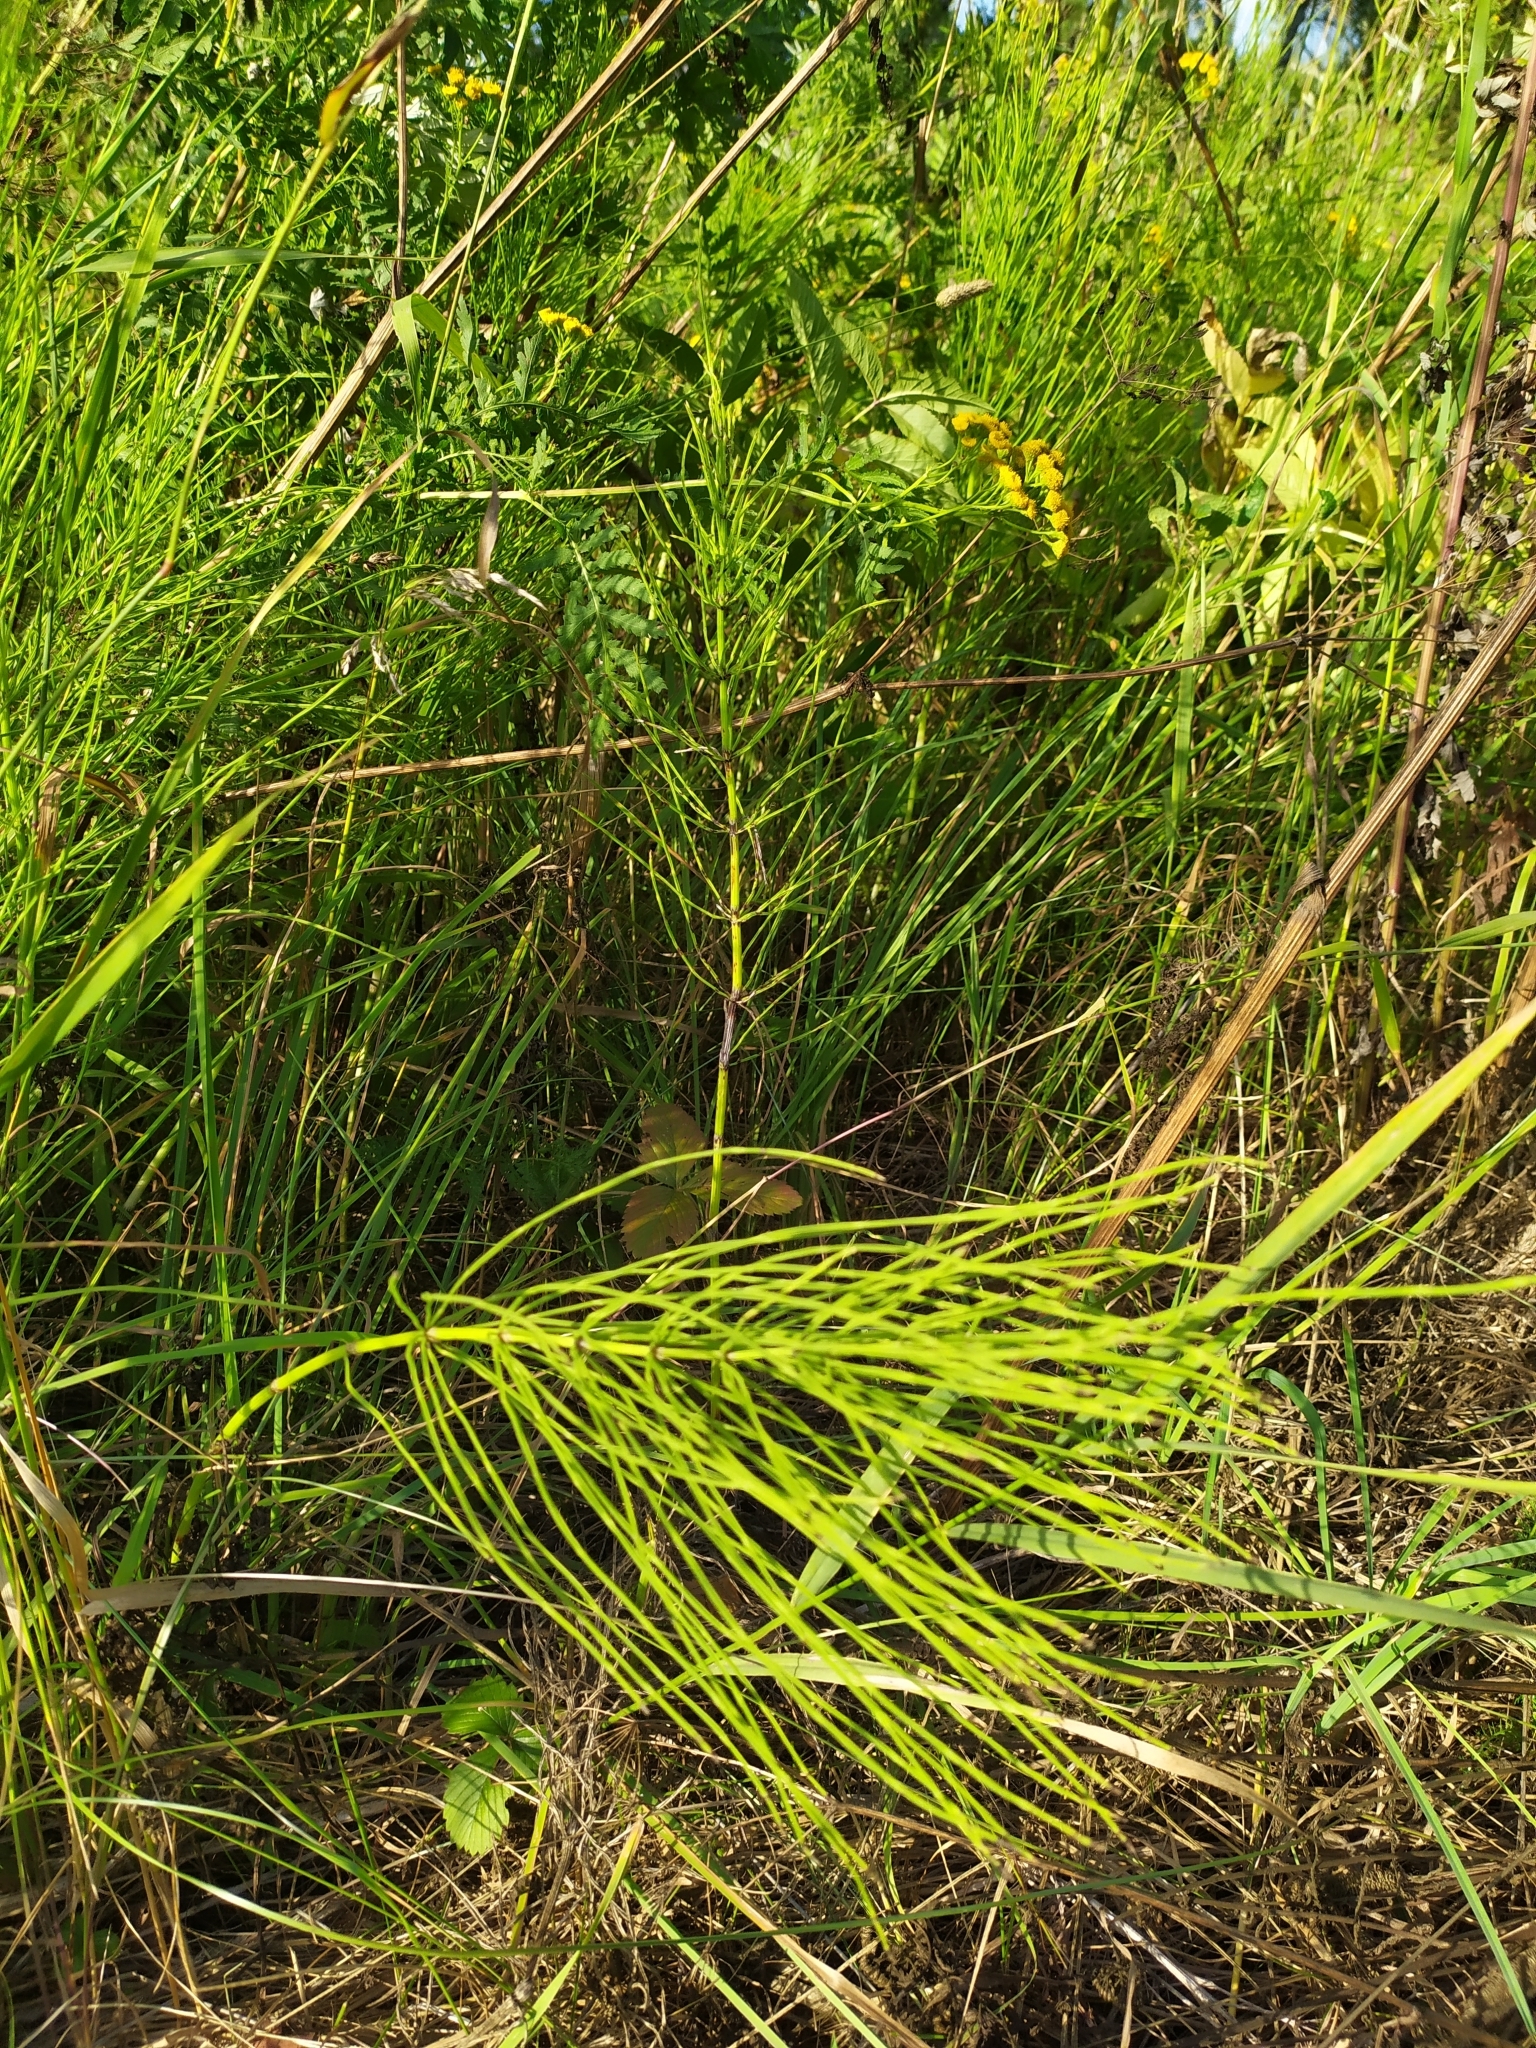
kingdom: Plantae
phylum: Tracheophyta
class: Polypodiopsida
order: Equisetales
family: Equisetaceae
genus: Equisetum
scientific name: Equisetum arvense
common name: Field horsetail
